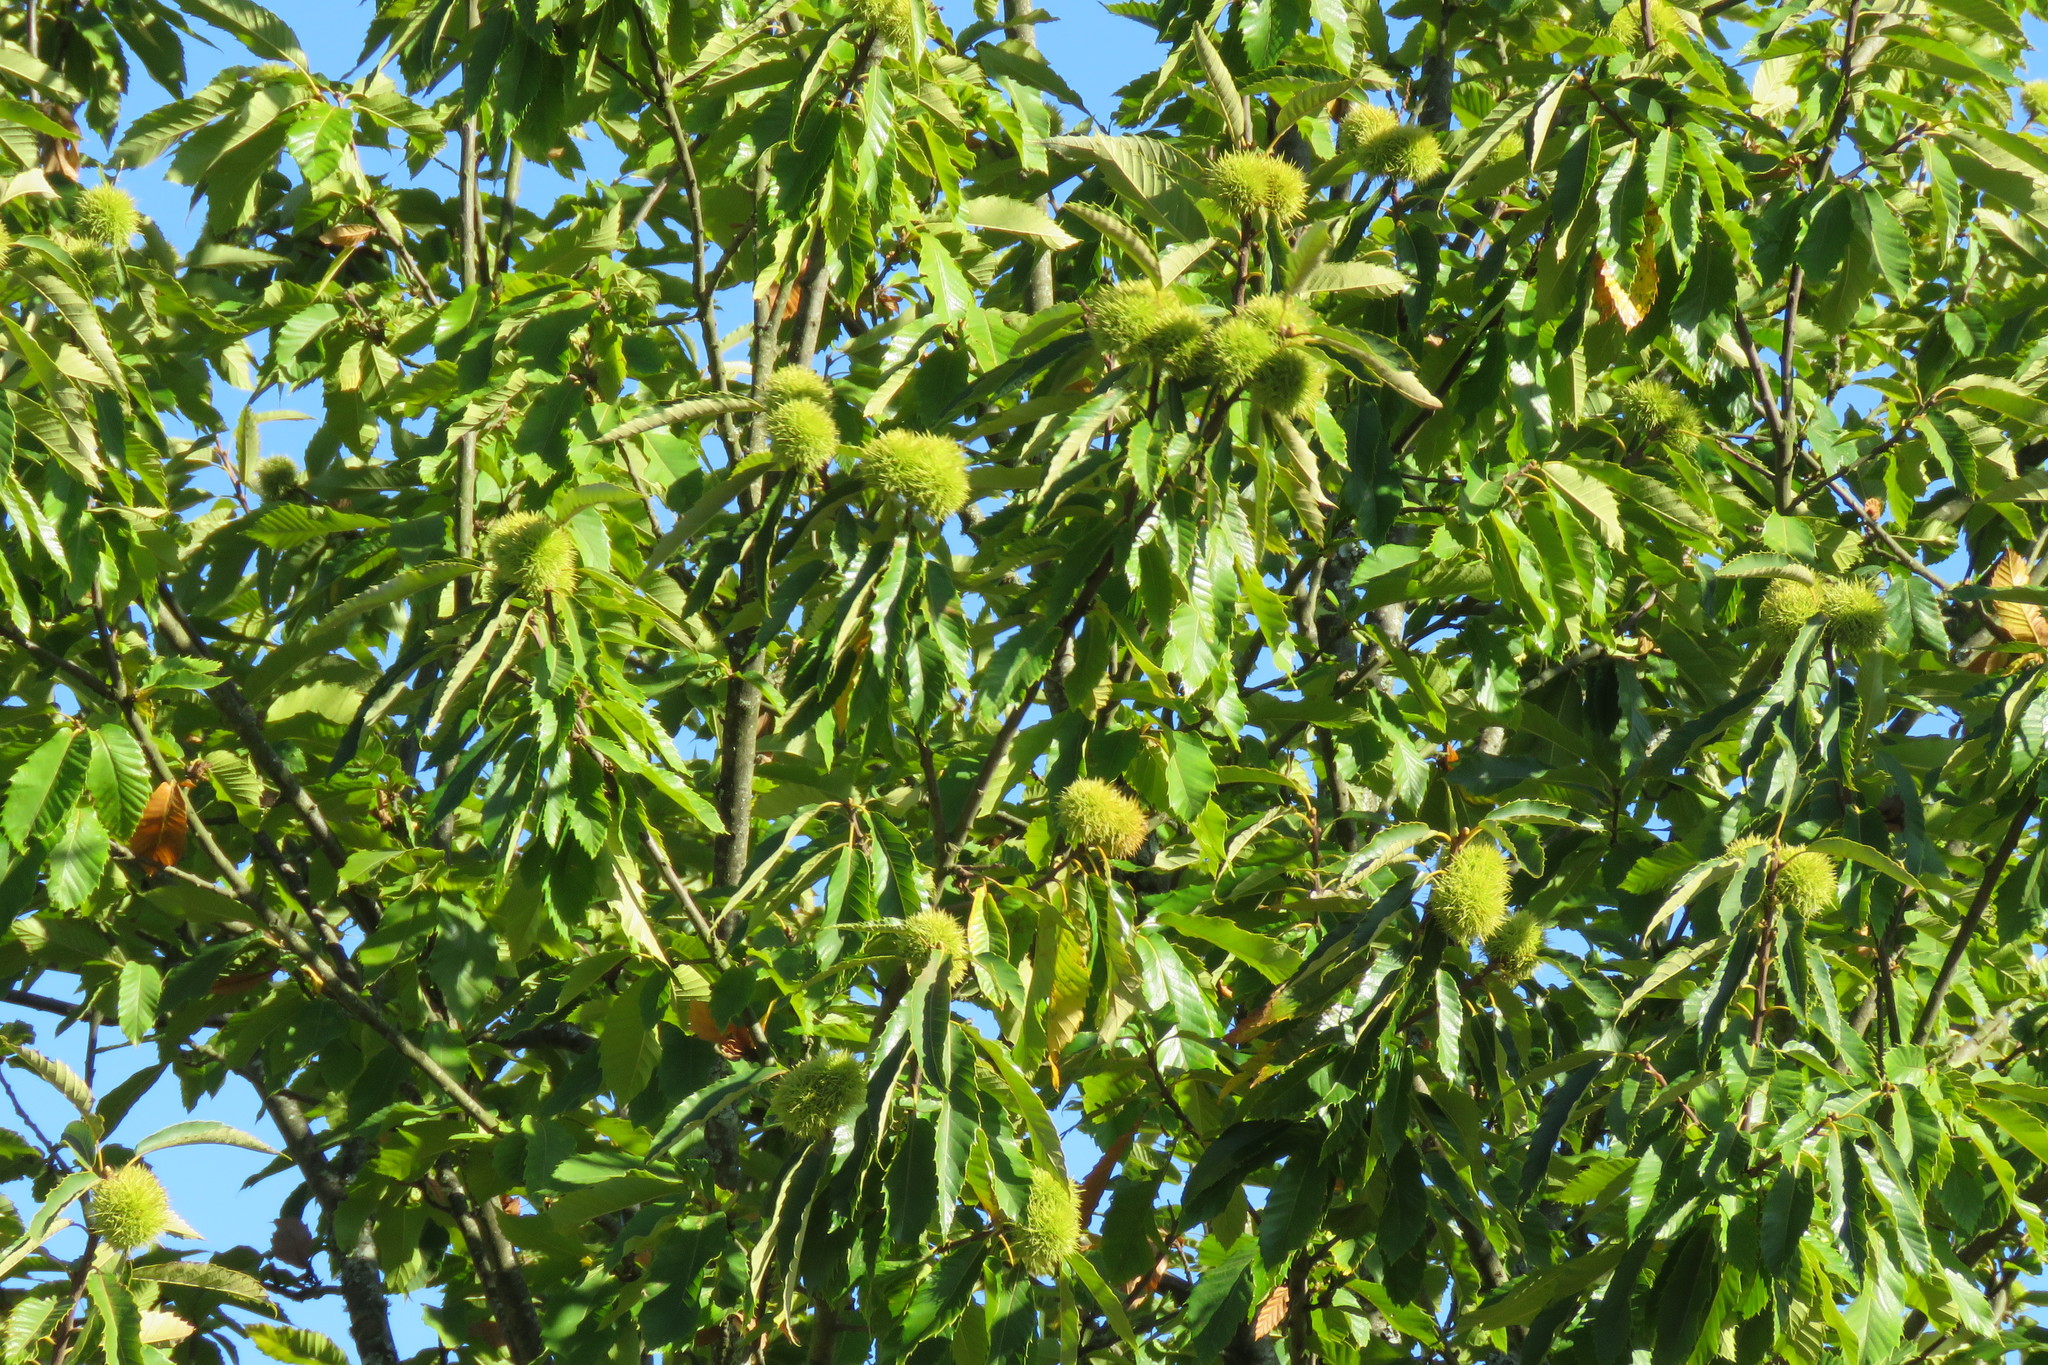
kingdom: Plantae
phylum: Tracheophyta
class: Magnoliopsida
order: Fagales
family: Fagaceae
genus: Castanea
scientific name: Castanea sativa
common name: Sweet chestnut
